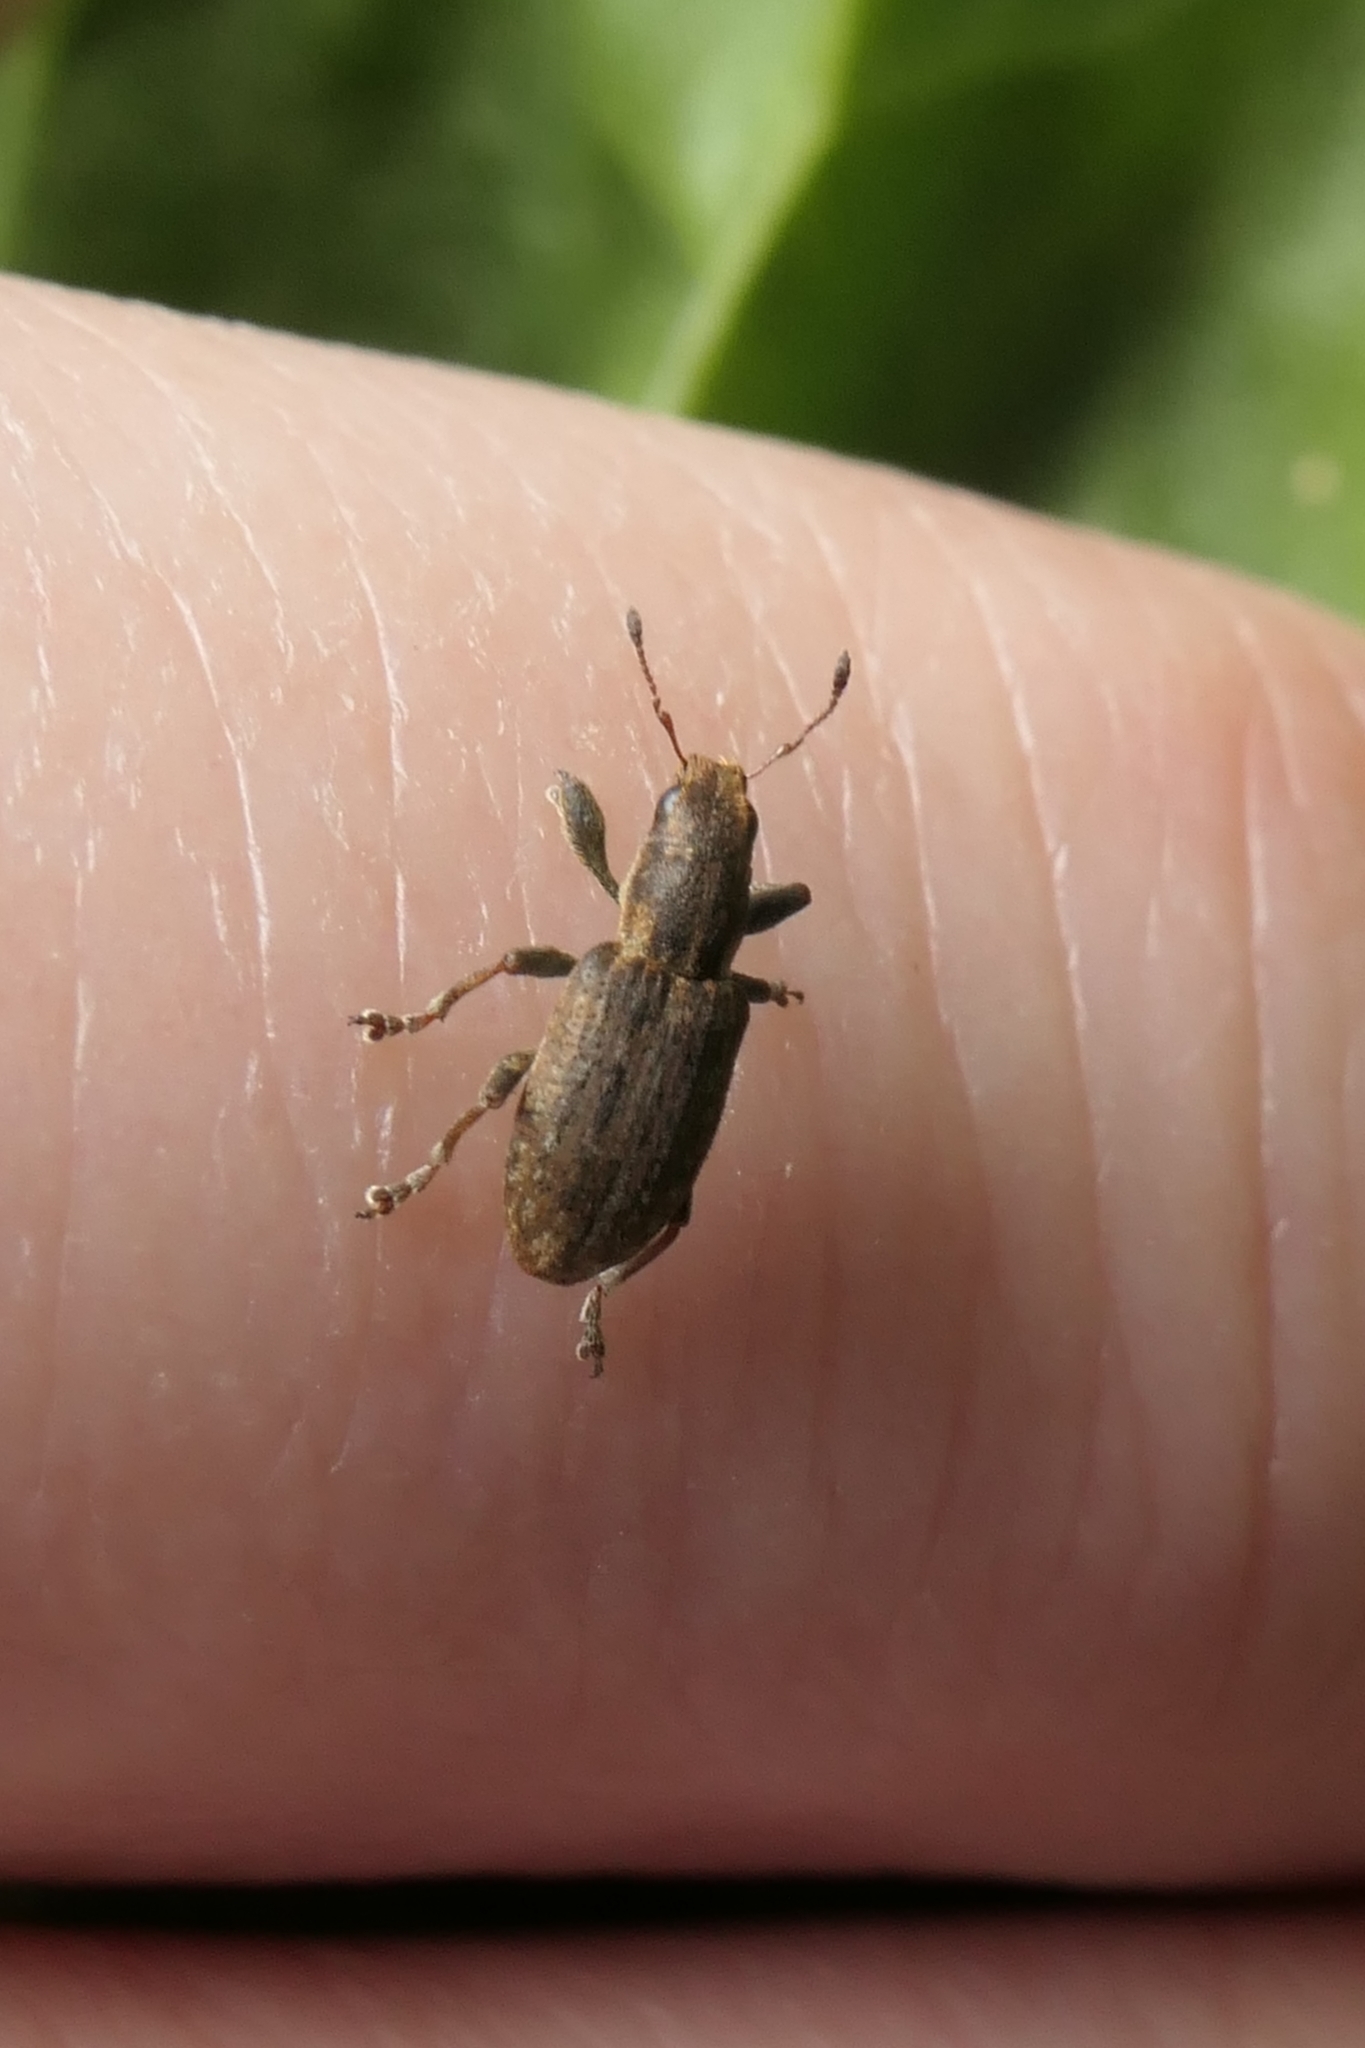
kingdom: Animalia
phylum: Arthropoda
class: Insecta
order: Coleoptera
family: Curculionidae
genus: Sitona
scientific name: Sitona obsoletus
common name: Weevil
